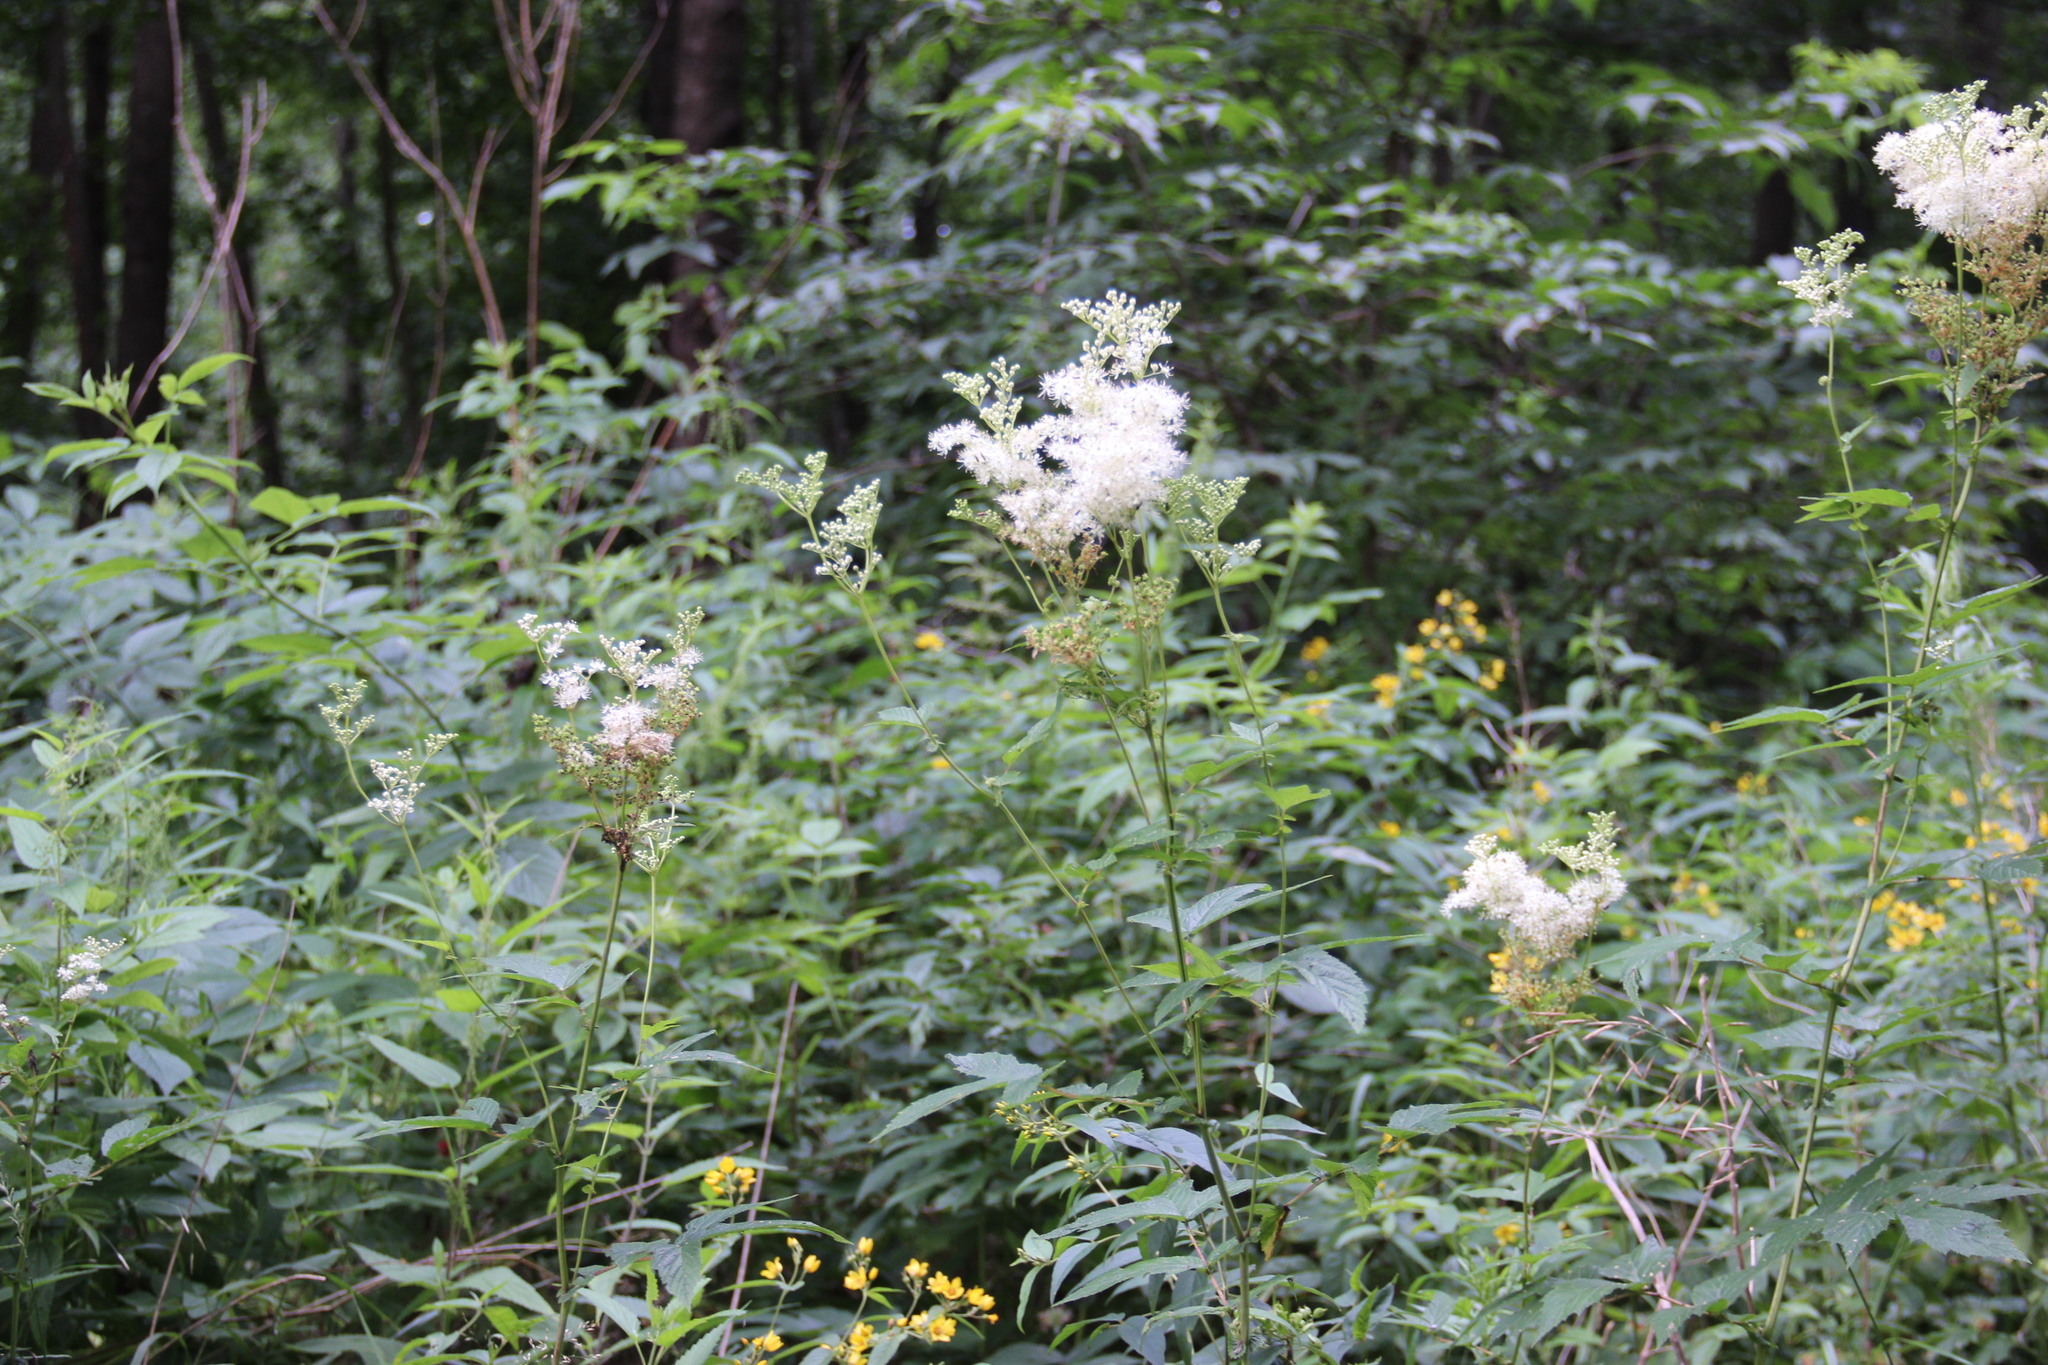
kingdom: Plantae
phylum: Tracheophyta
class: Magnoliopsida
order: Rosales
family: Rosaceae
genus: Filipendula
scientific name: Filipendula ulmaria
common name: Meadowsweet
